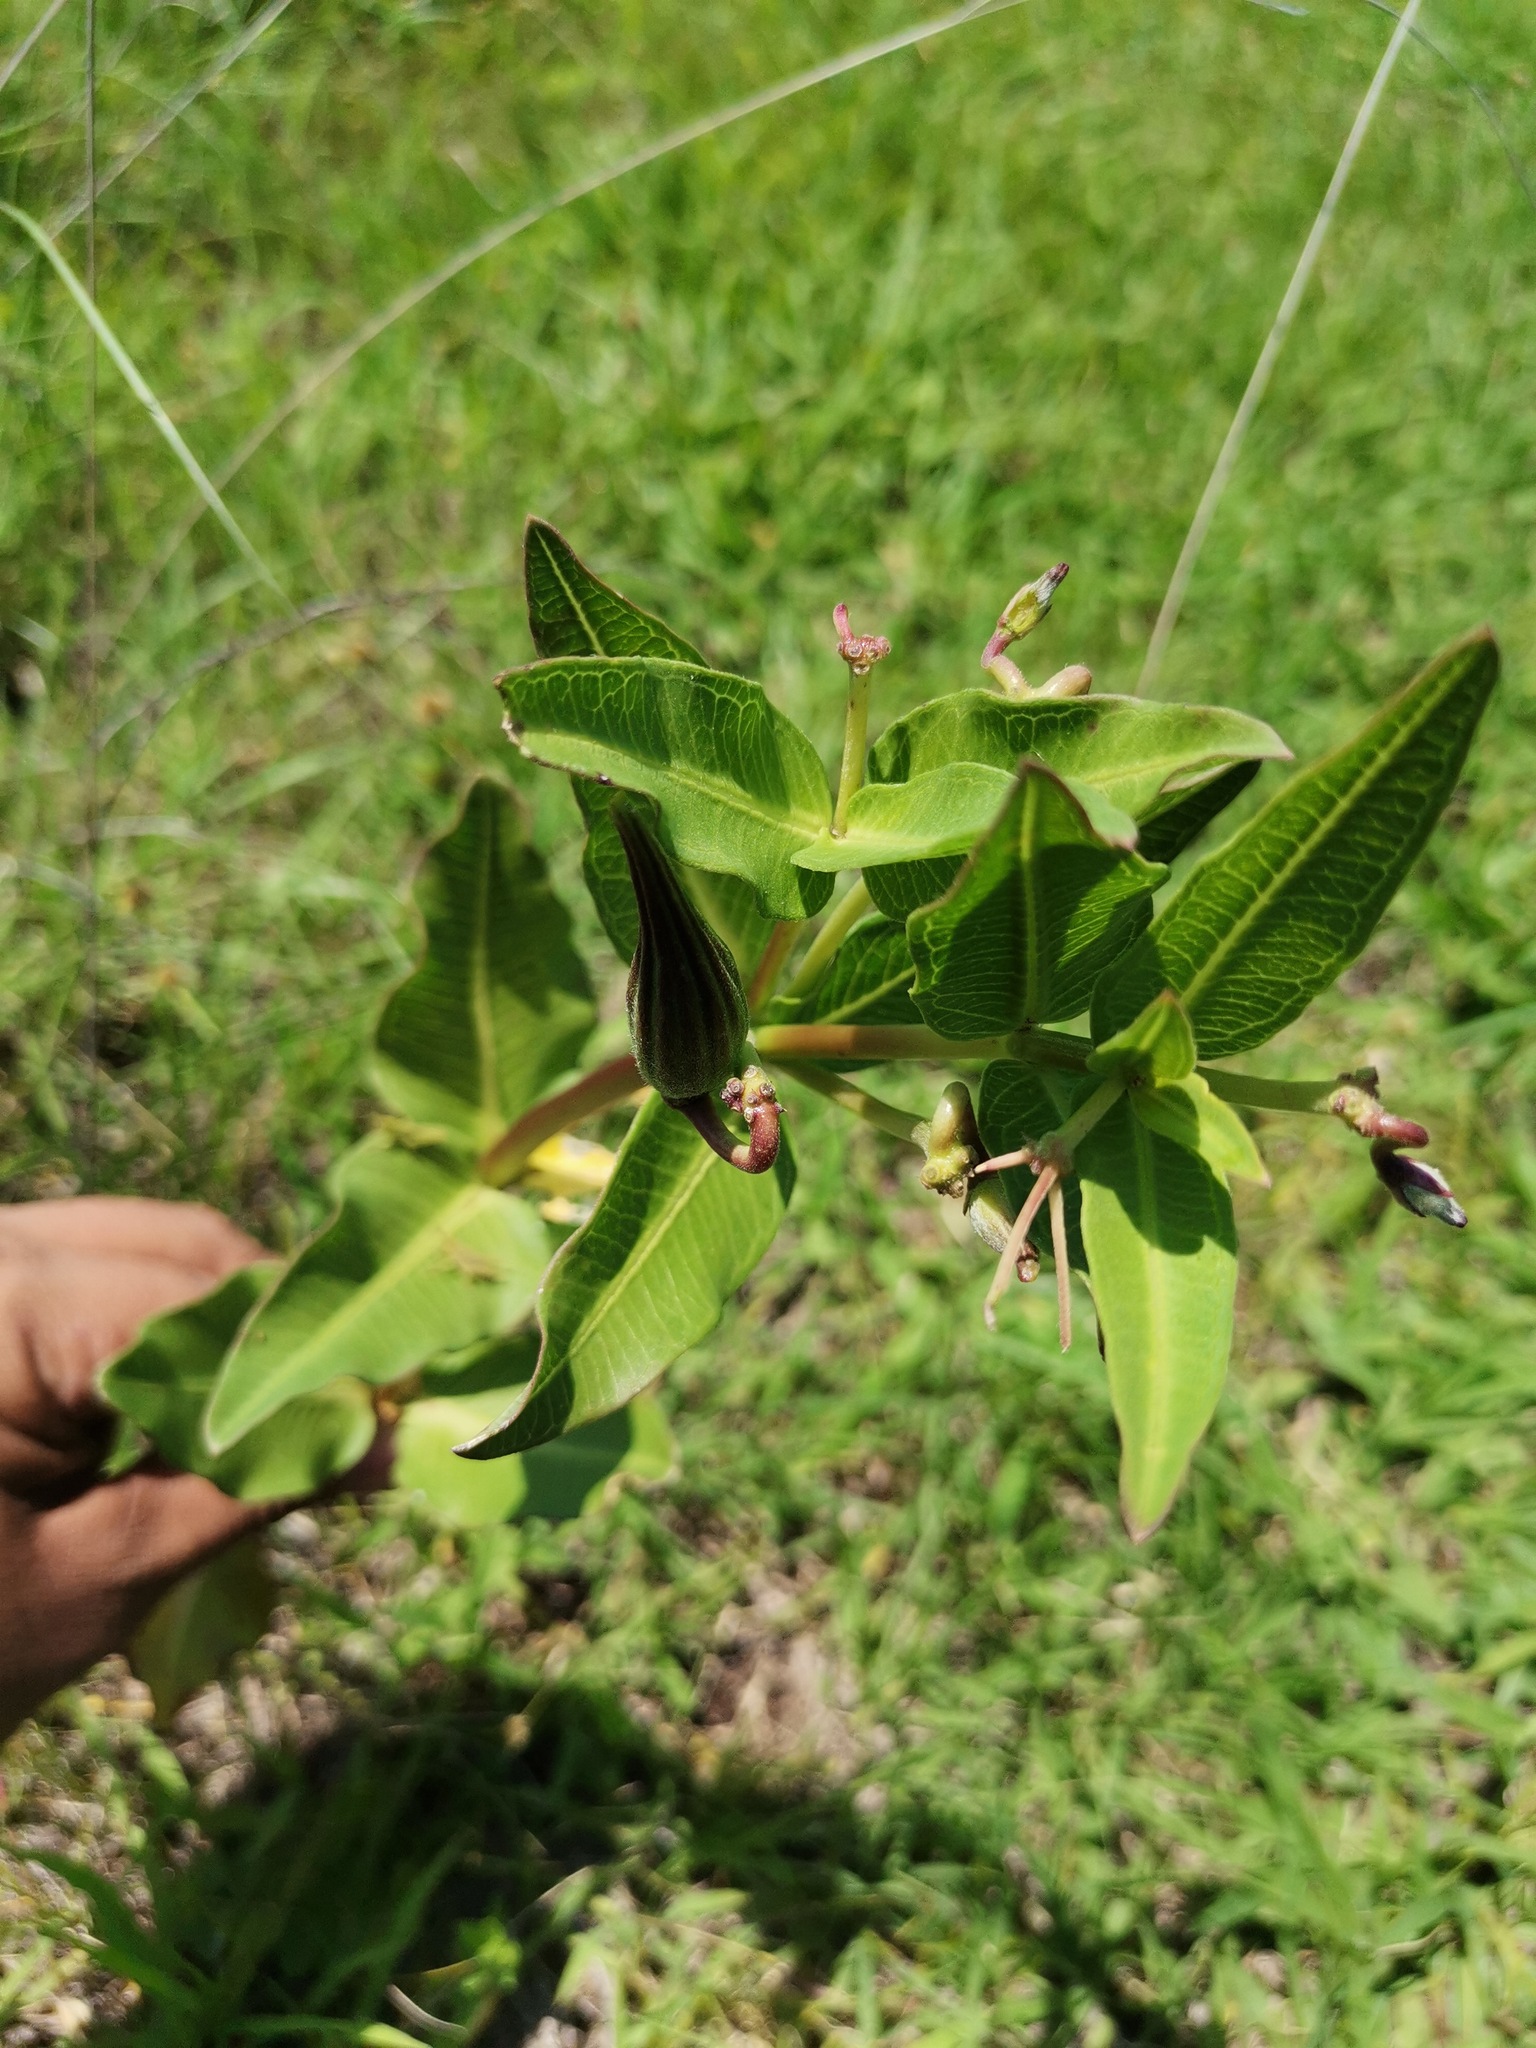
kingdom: Plantae
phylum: Tracheophyta
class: Magnoliopsida
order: Gentianales
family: Apocynaceae
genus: Asclepias
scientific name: Asclepias pratensis
